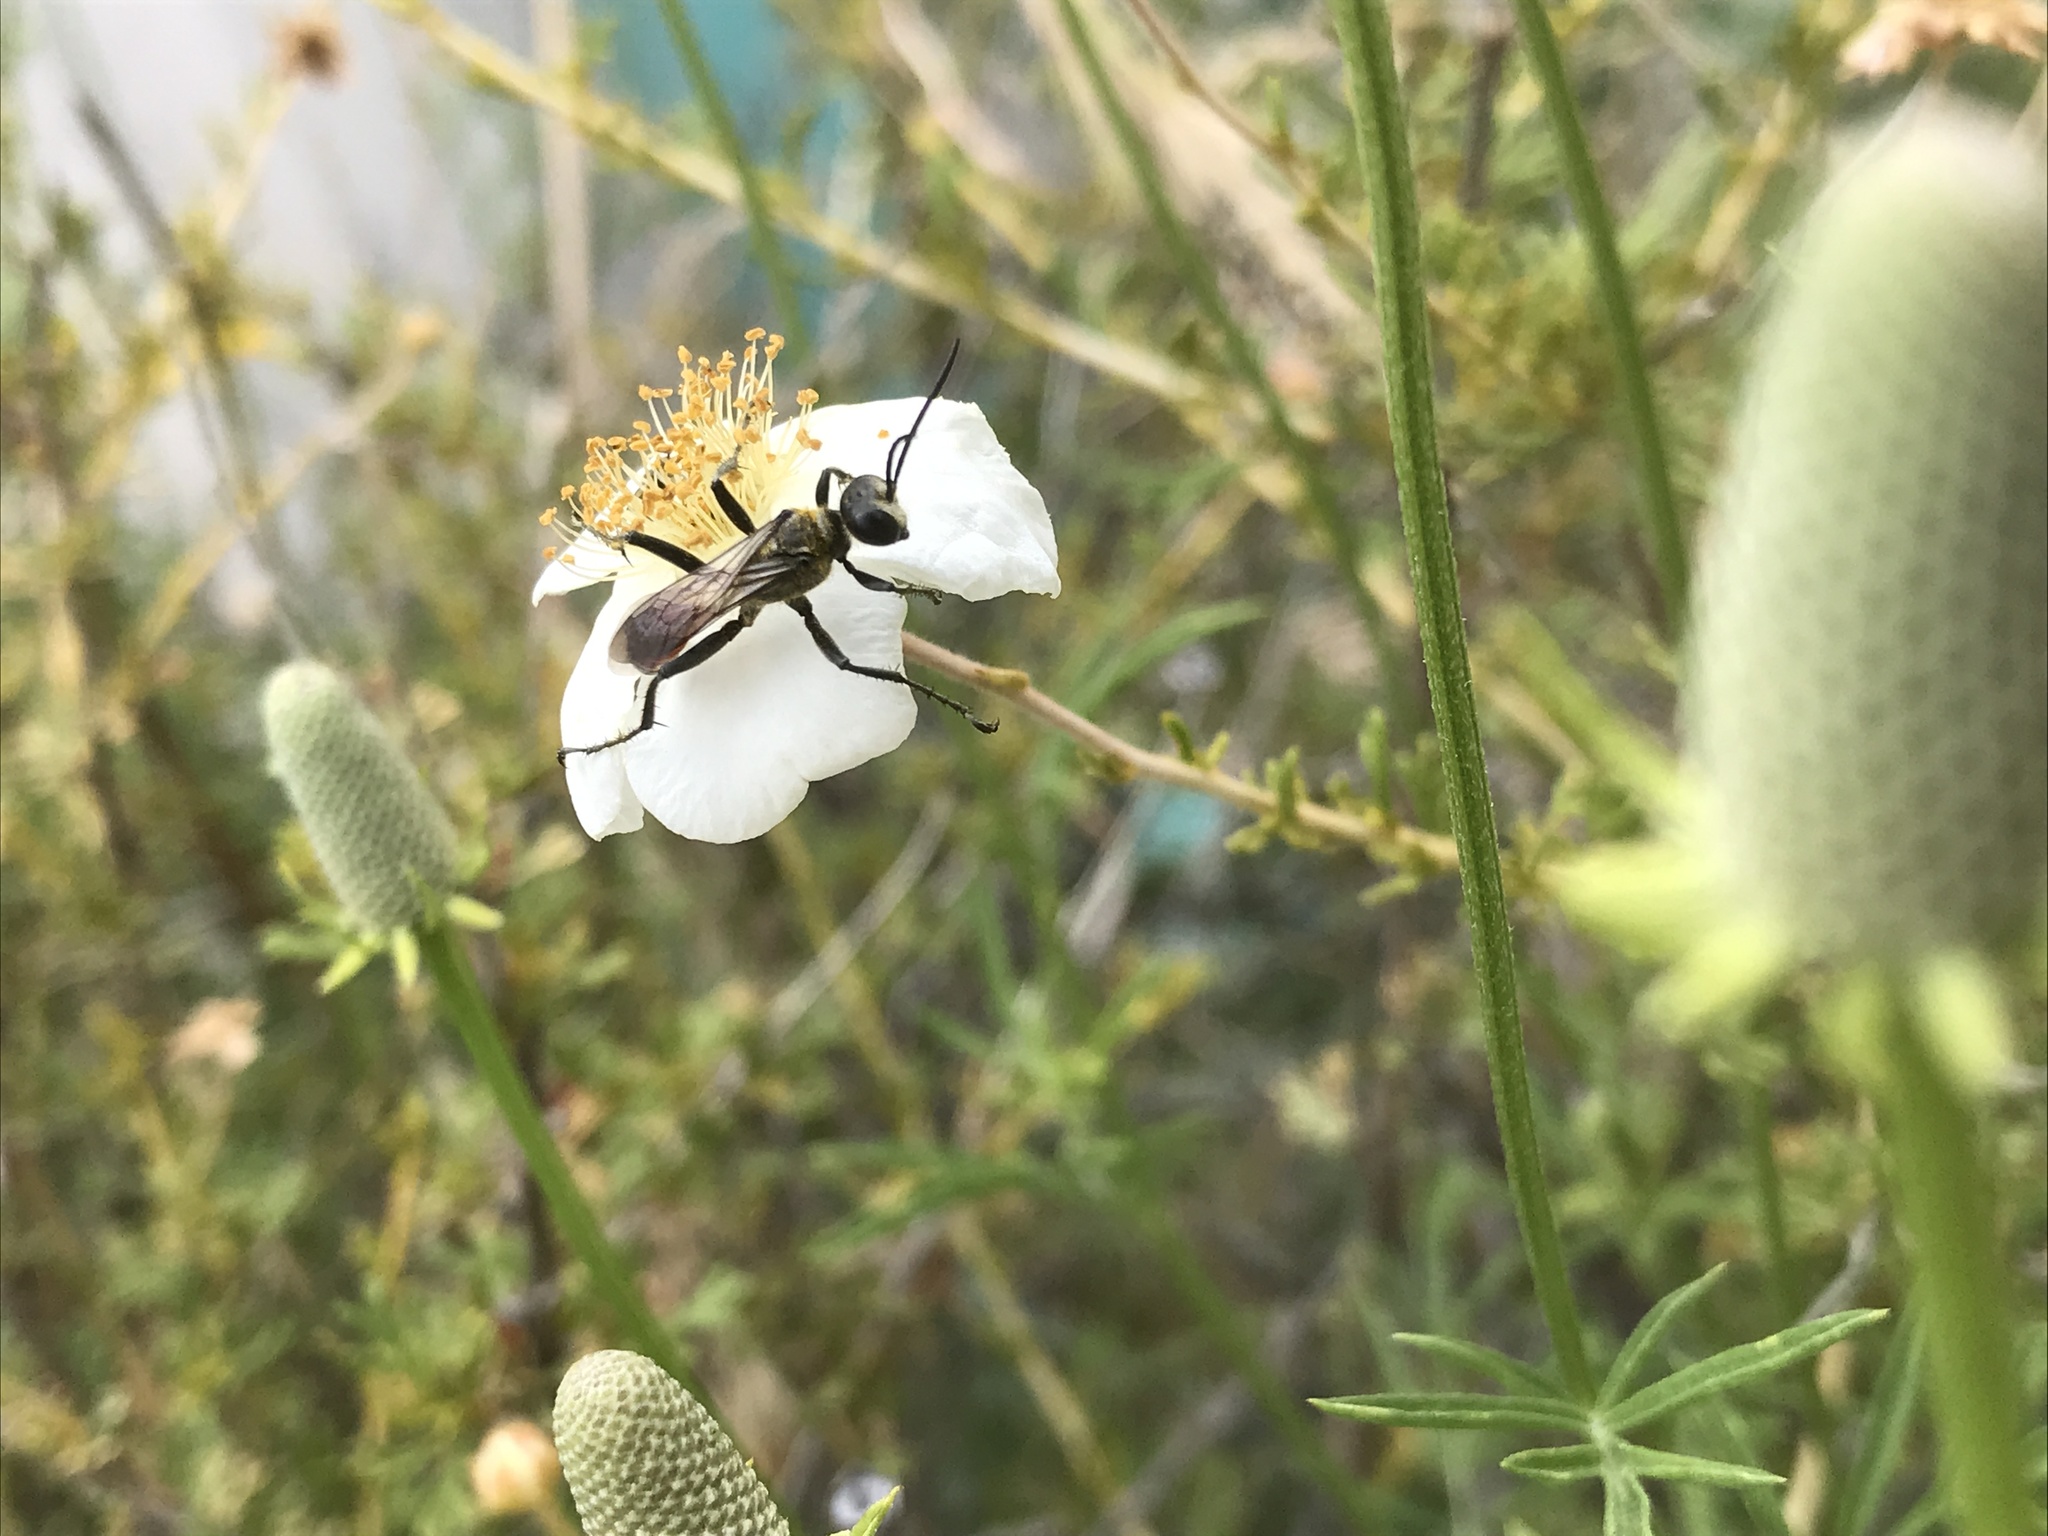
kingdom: Animalia
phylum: Arthropoda
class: Insecta
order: Hymenoptera
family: Sphecidae
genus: Prionyx
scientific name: Prionyx
